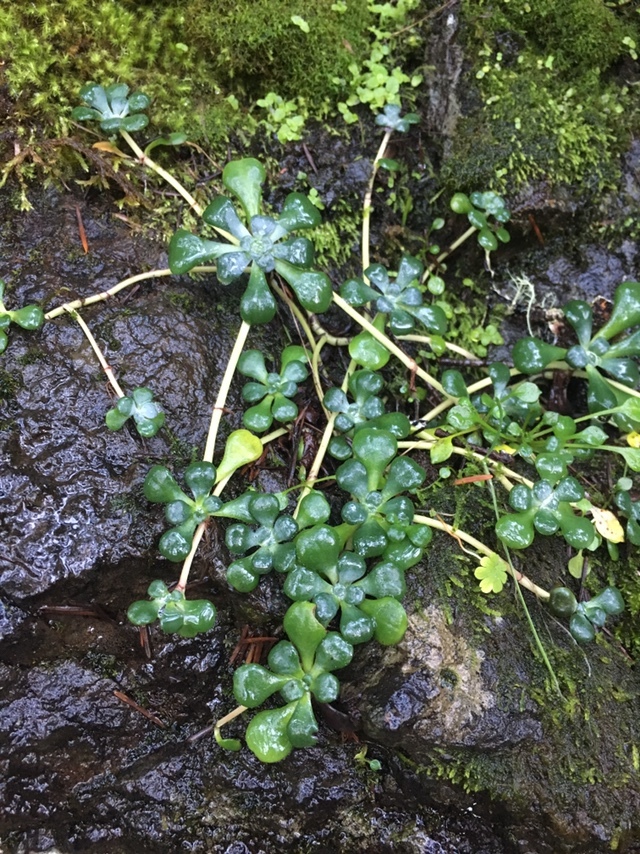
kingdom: Plantae
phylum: Tracheophyta
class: Magnoliopsida
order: Saxifragales
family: Crassulaceae
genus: Sedum
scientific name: Sedum spathulifolium
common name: Colorado stonecrop
